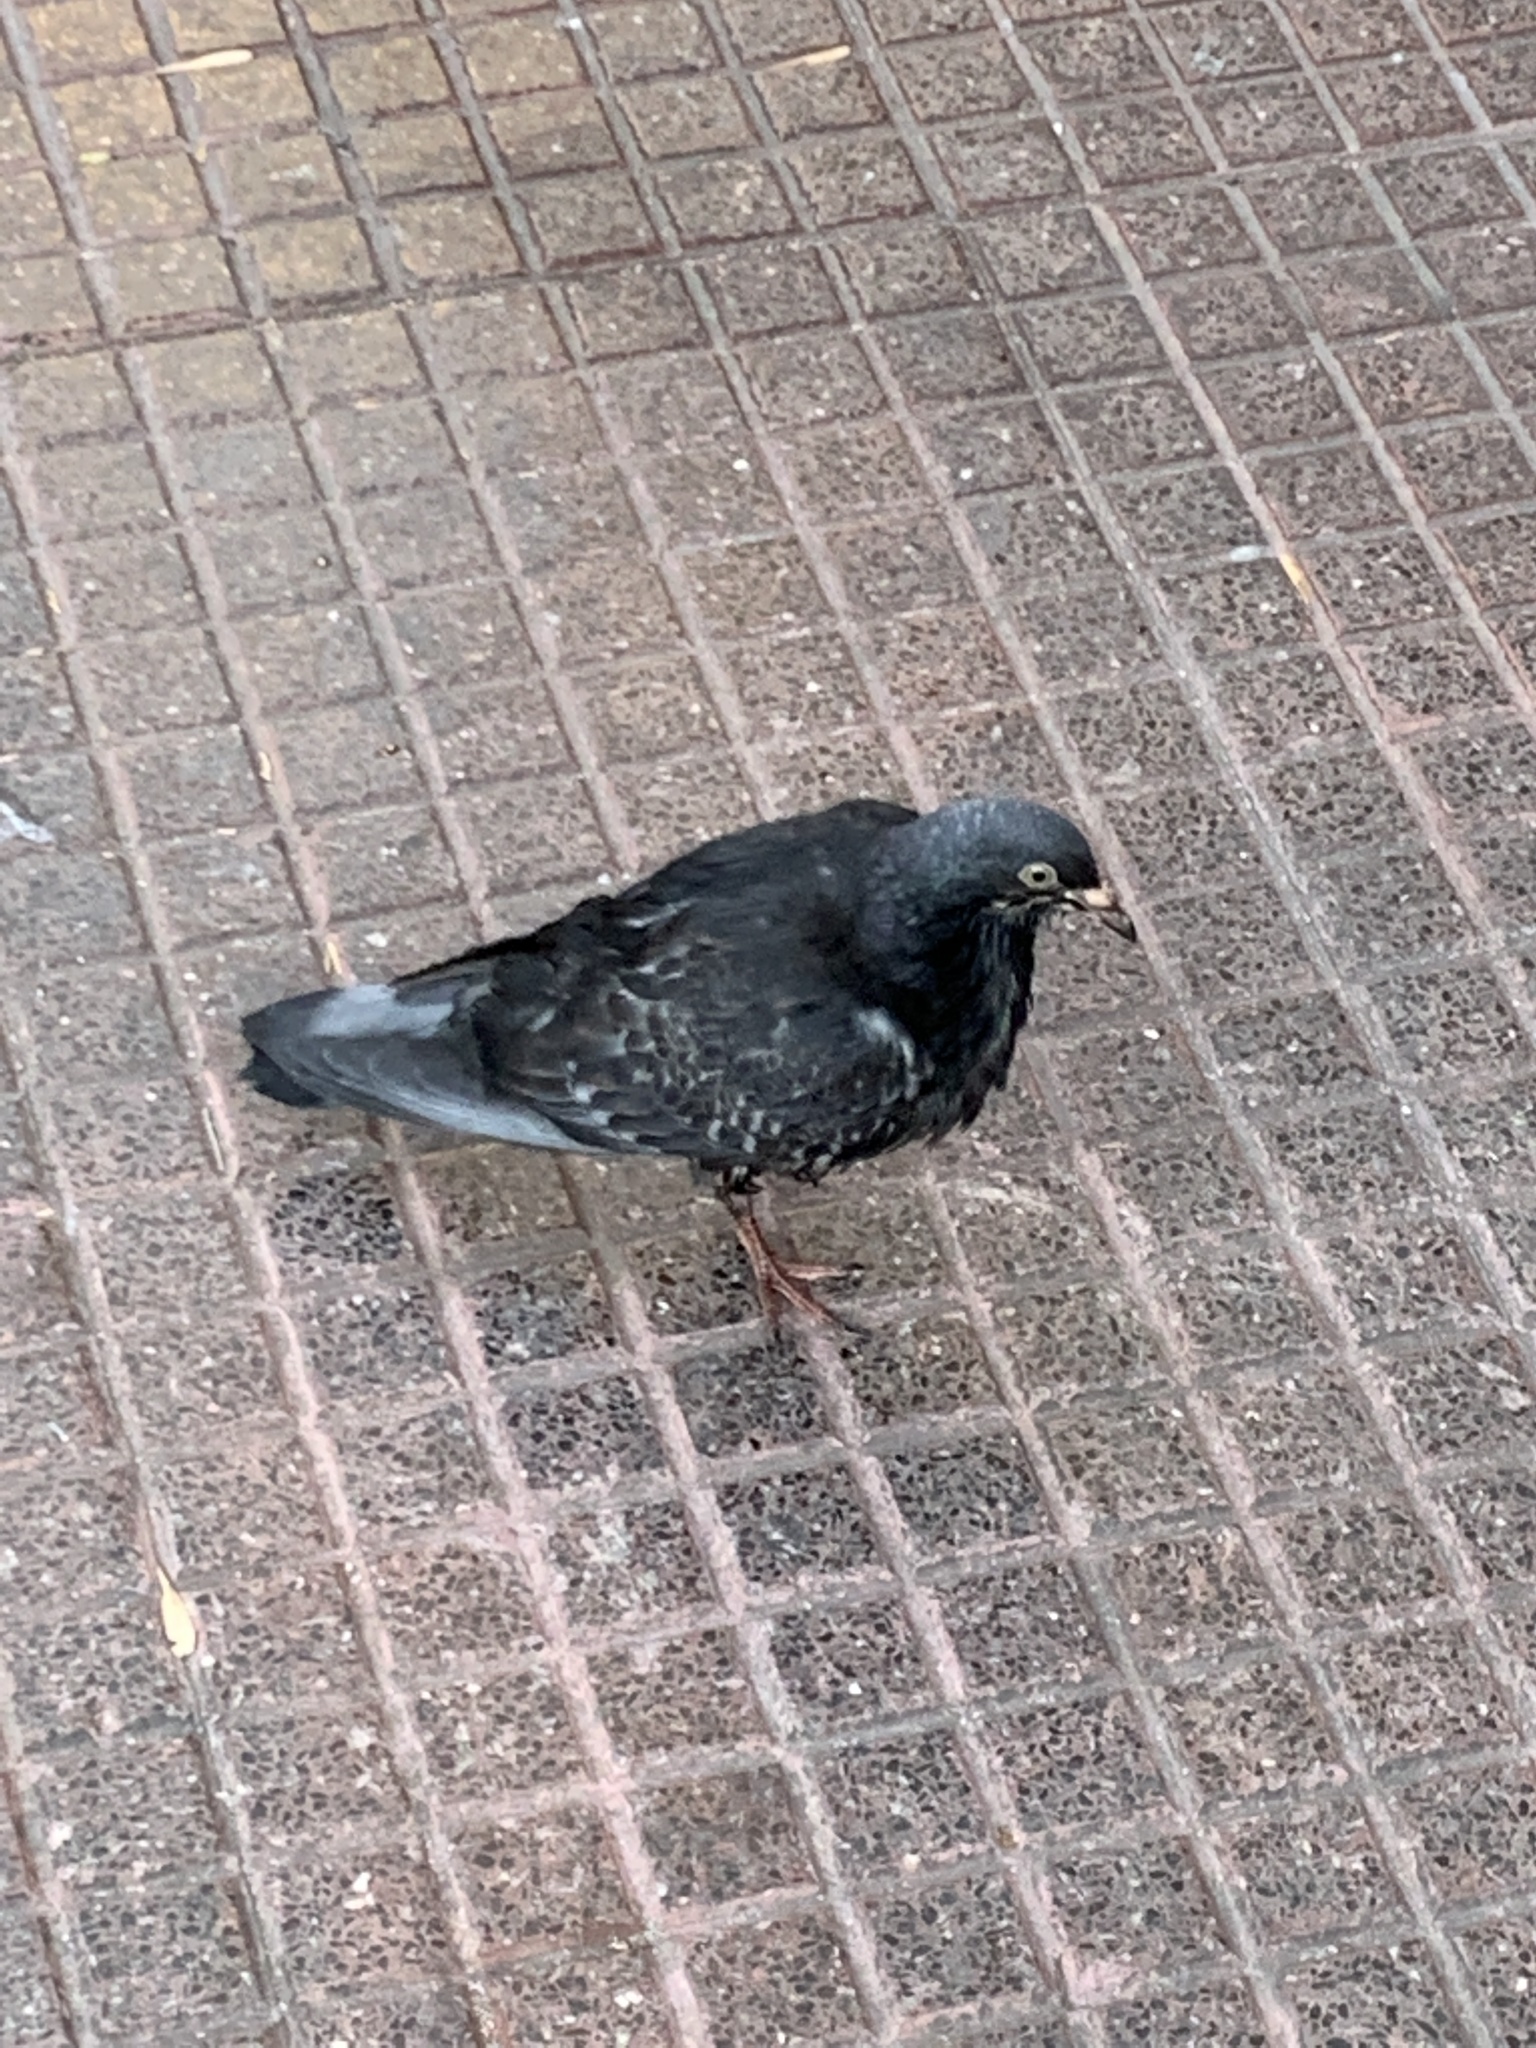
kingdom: Animalia
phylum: Chordata
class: Aves
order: Columbiformes
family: Columbidae
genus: Columba
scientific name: Columba livia
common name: Rock pigeon
